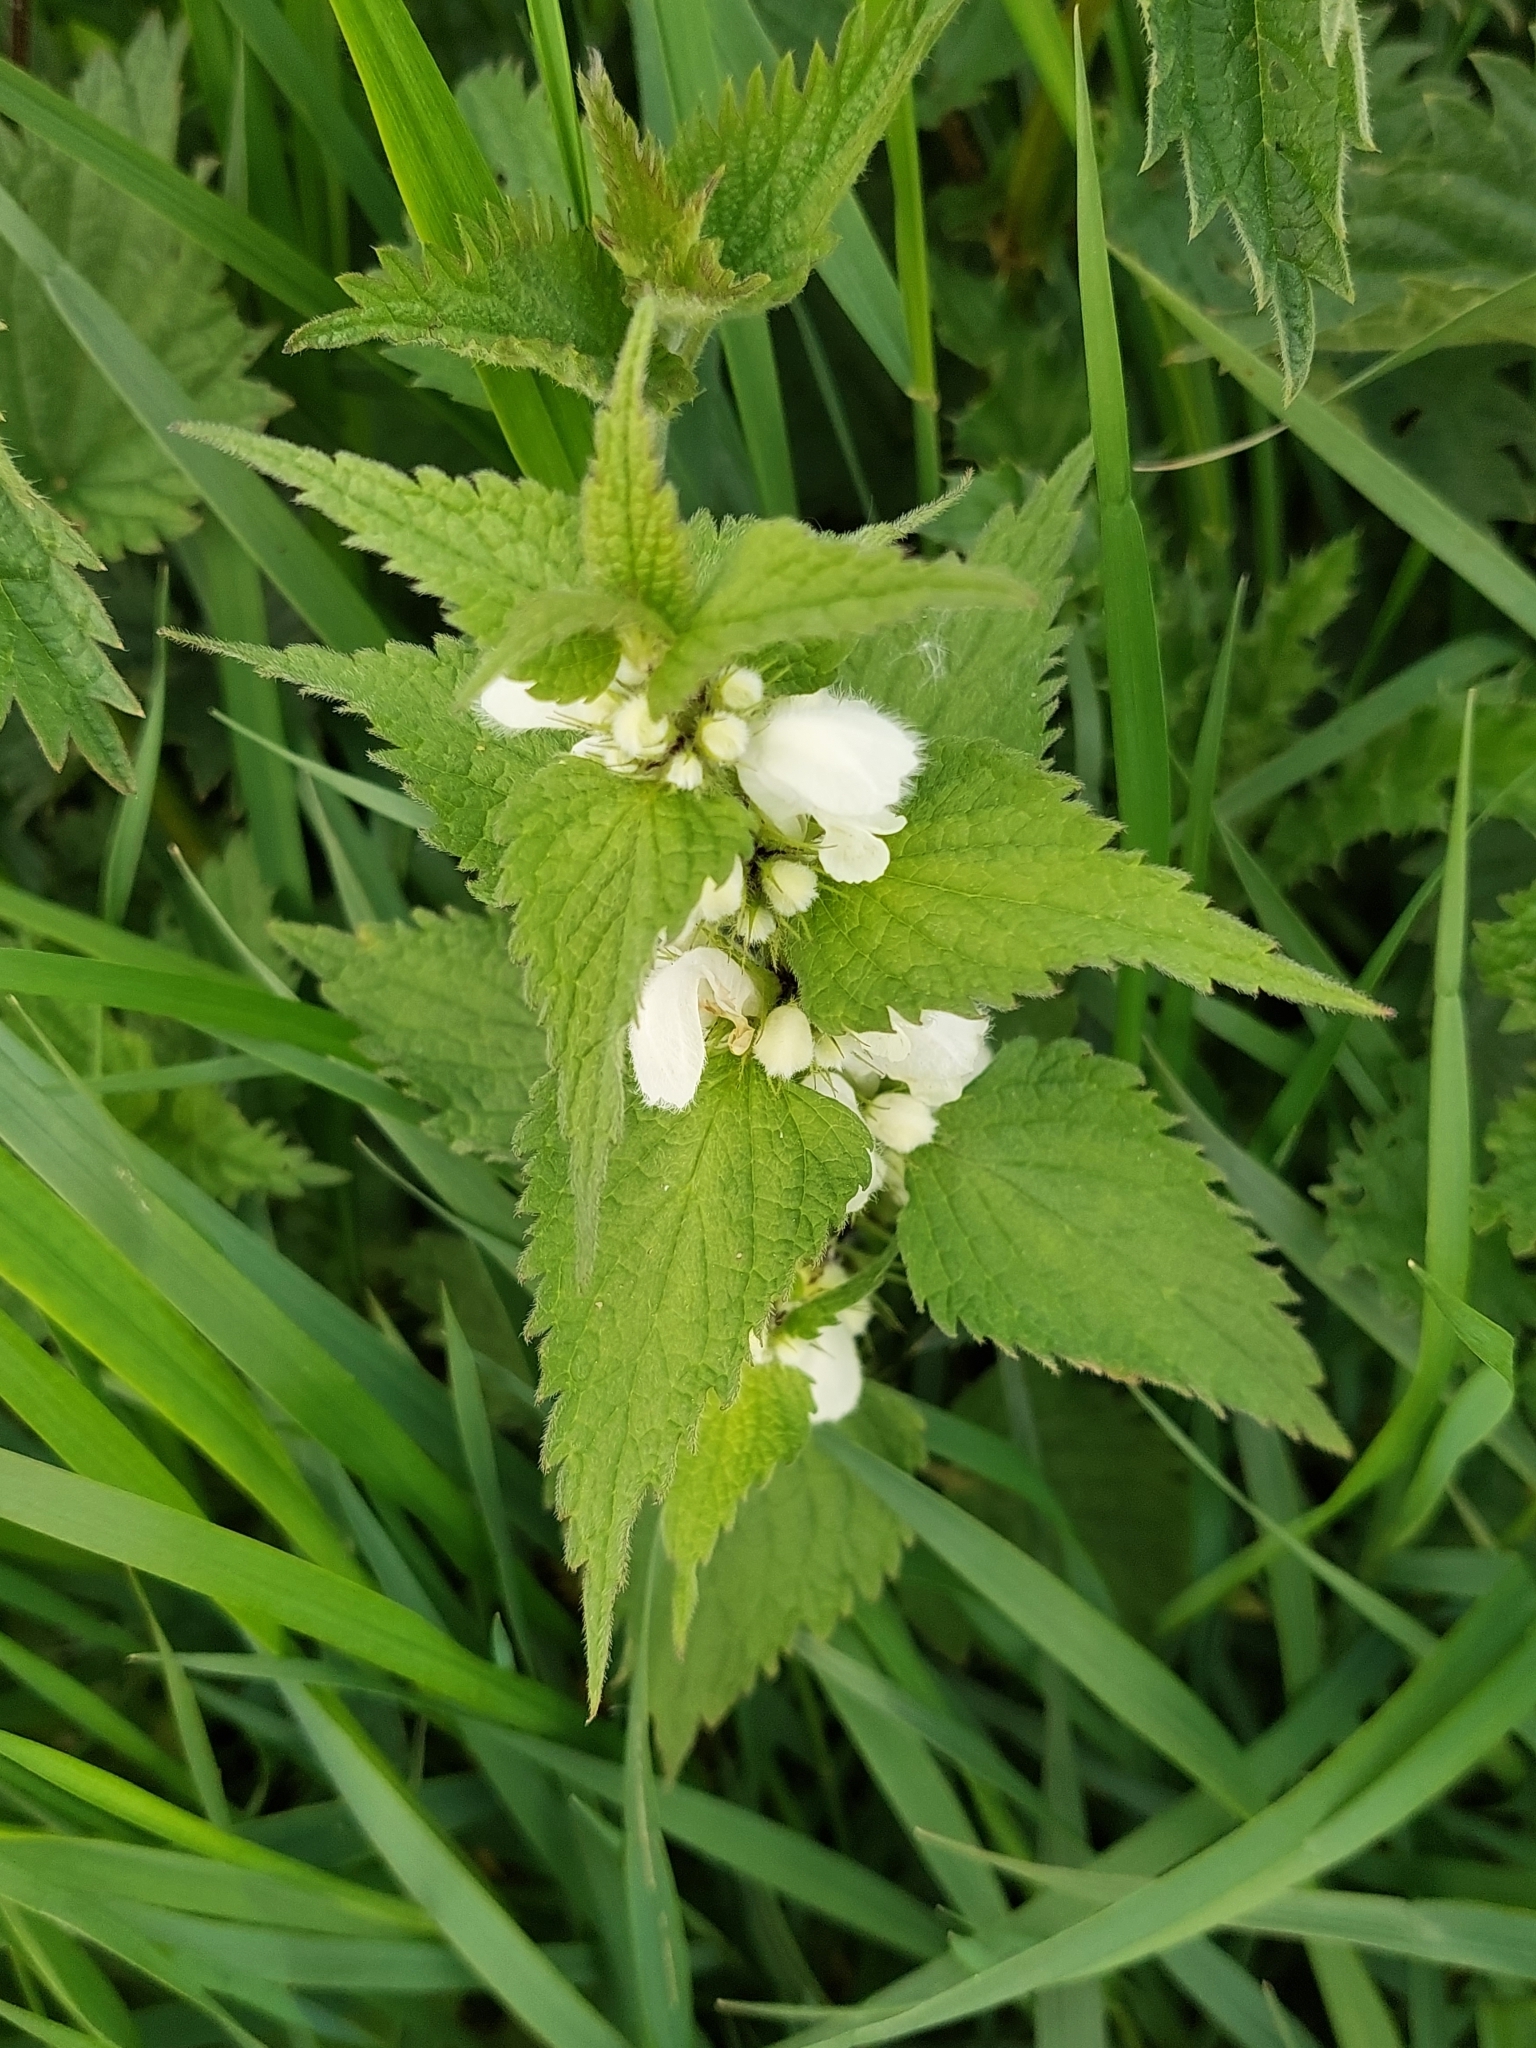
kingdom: Plantae
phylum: Tracheophyta
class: Magnoliopsida
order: Lamiales
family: Lamiaceae
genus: Lamium
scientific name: Lamium album
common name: White dead-nettle
